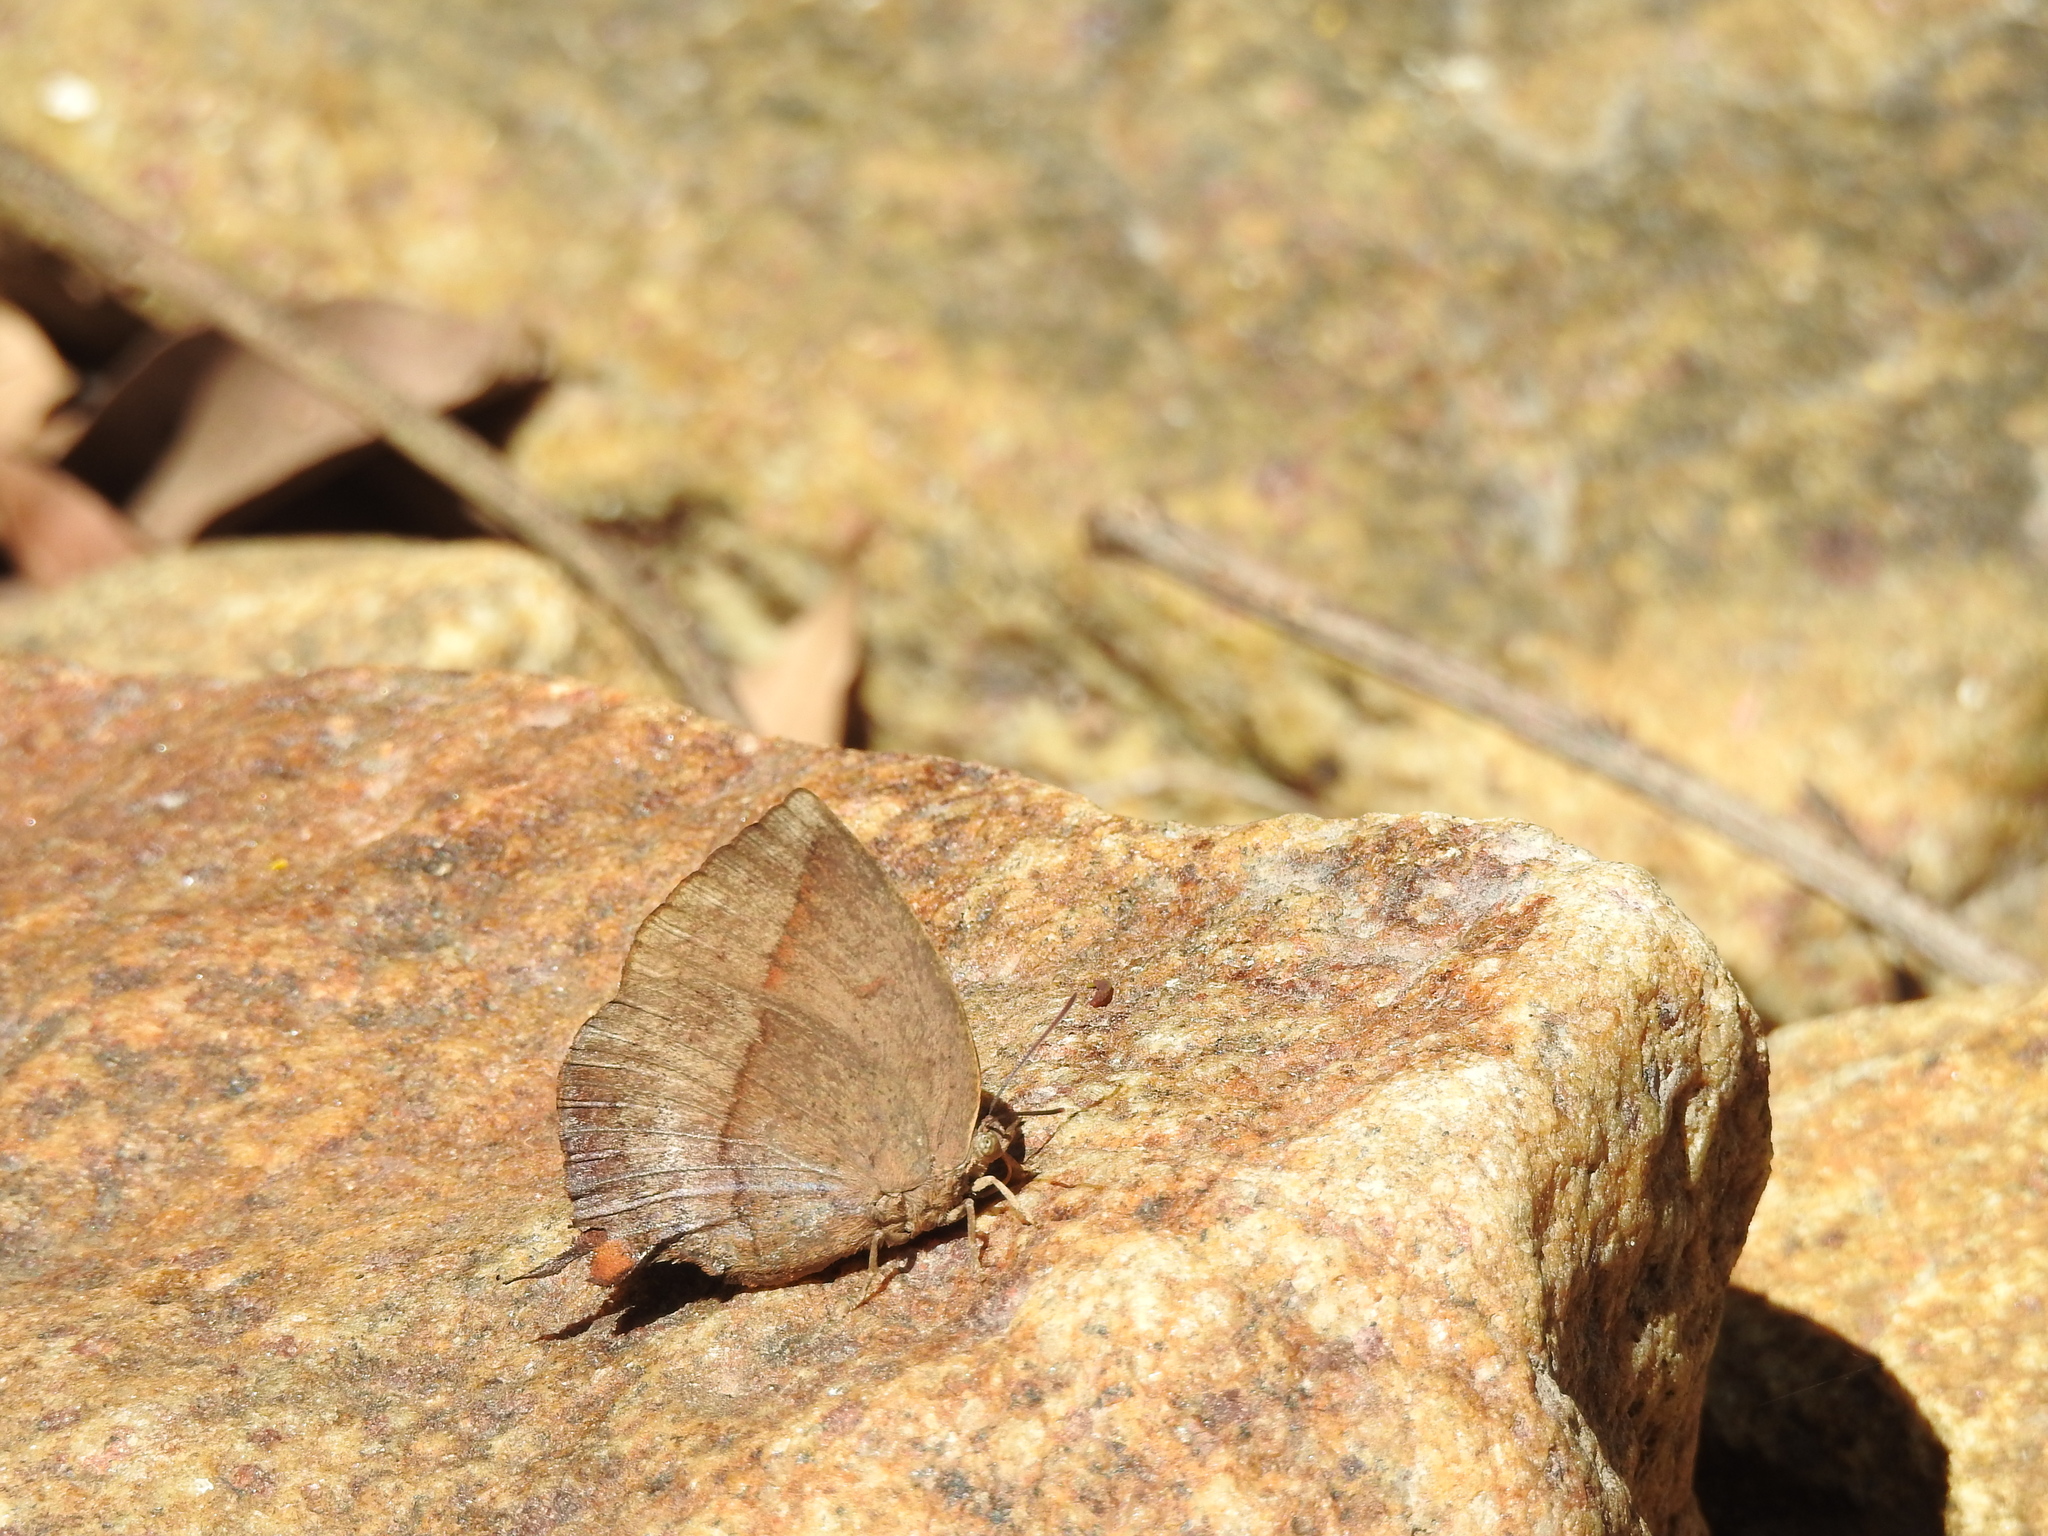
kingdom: Animalia
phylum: Arthropoda
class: Insecta
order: Lepidoptera
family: Lycaenidae
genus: Amblypodia
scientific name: Amblypodia anita
